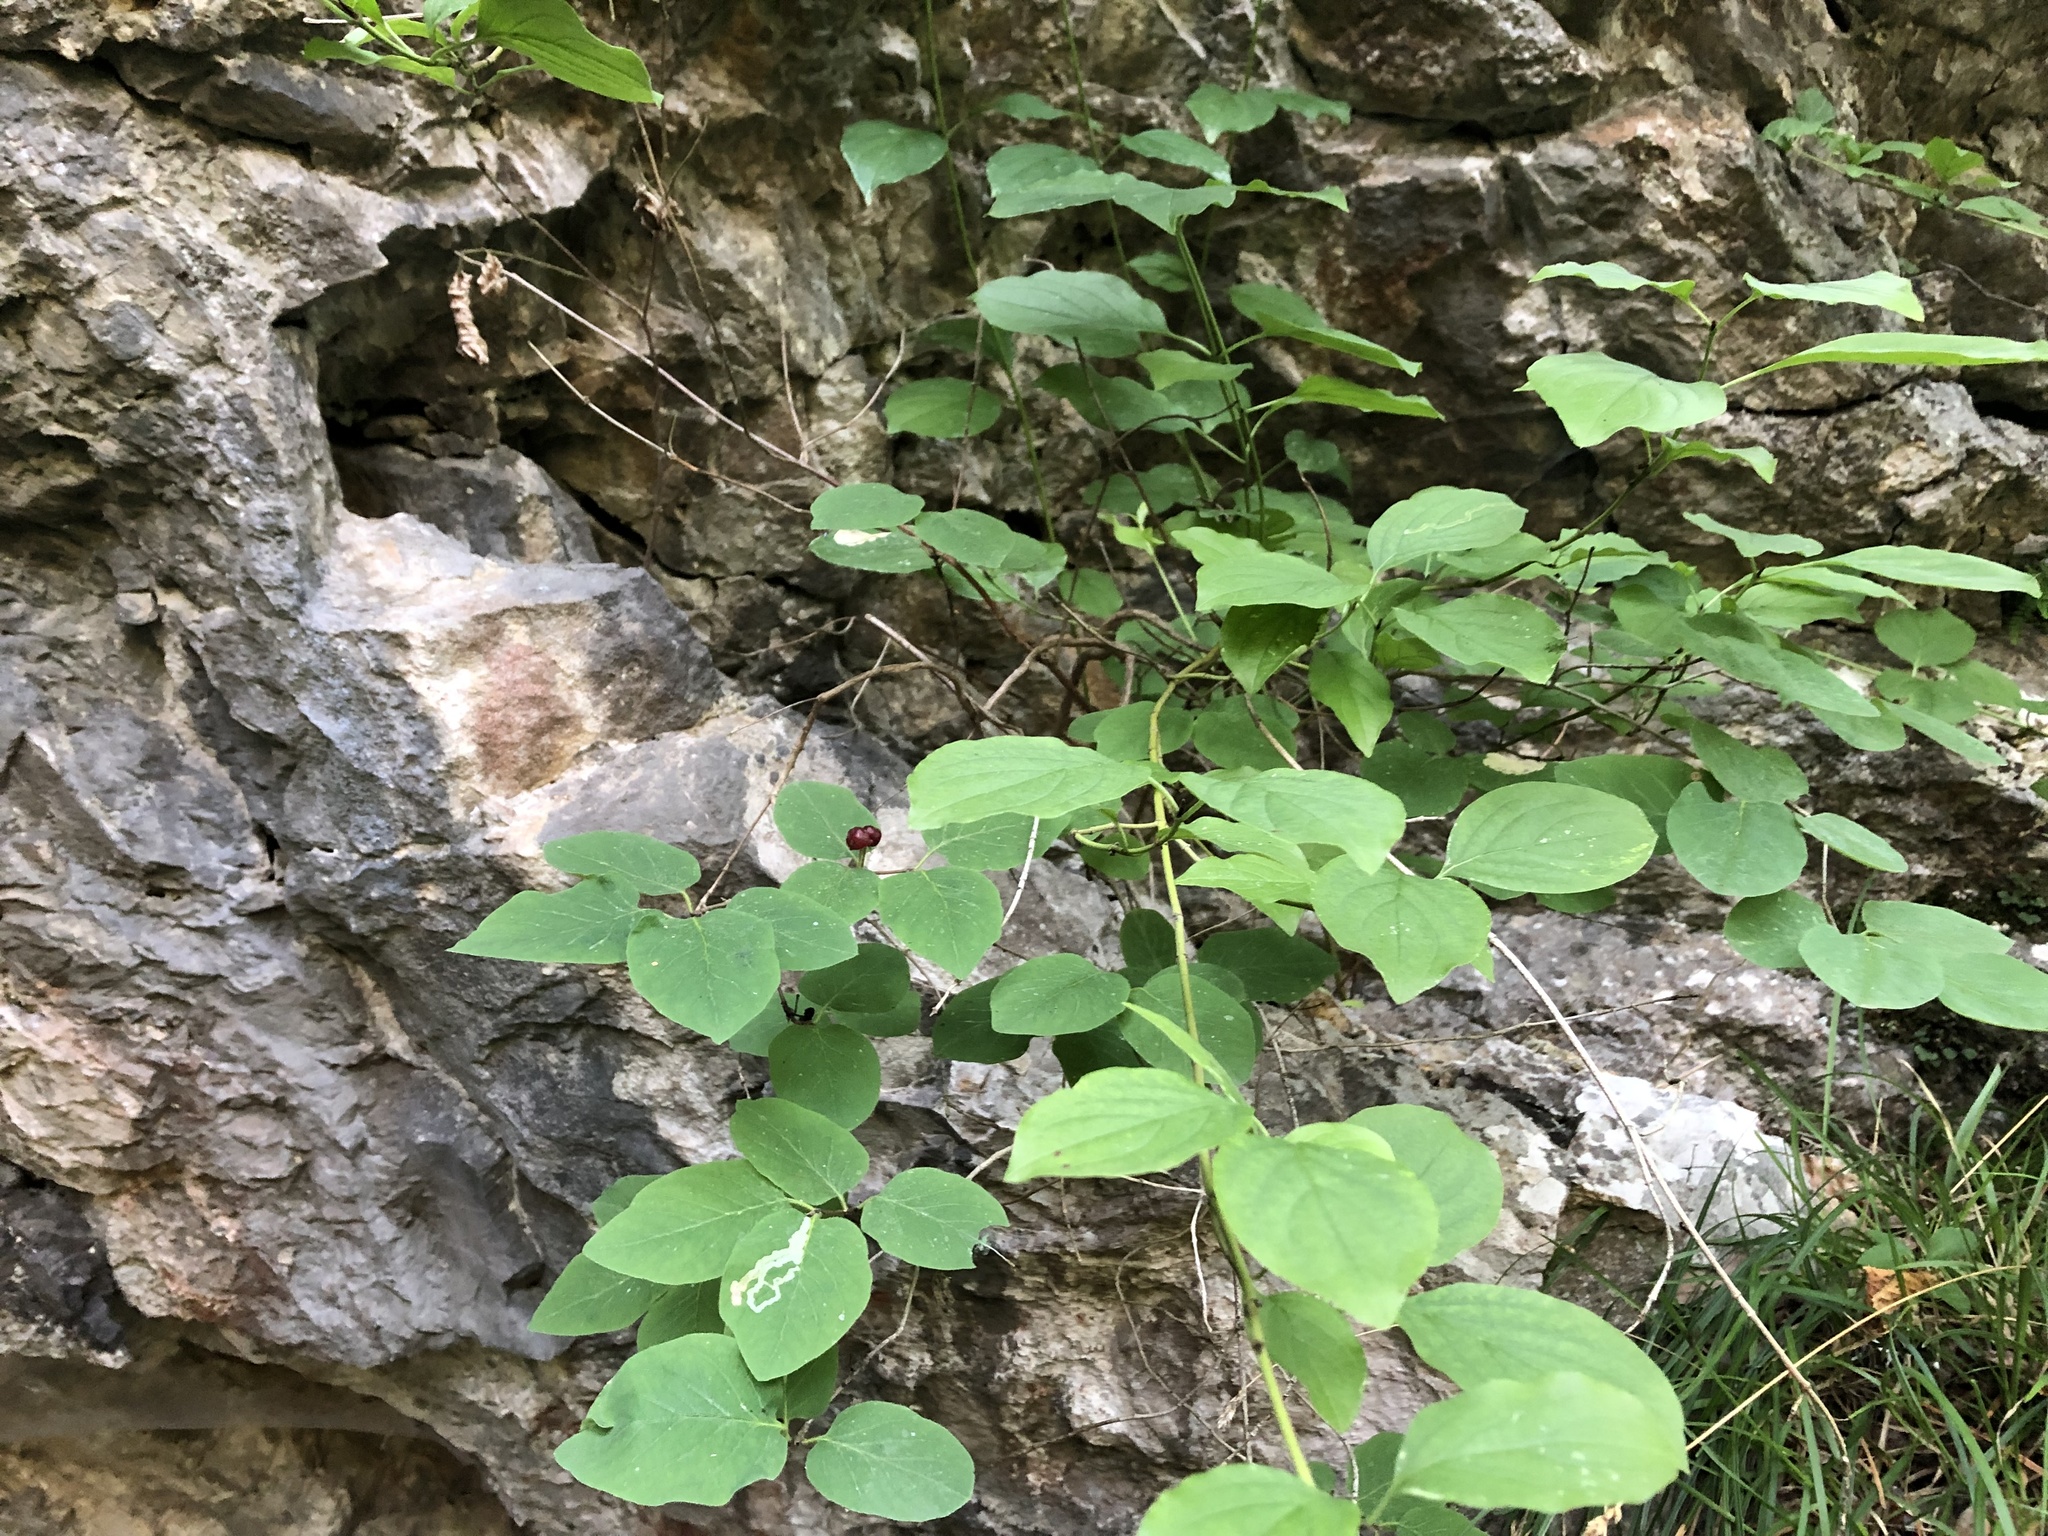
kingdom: Plantae
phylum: Tracheophyta
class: Magnoliopsida
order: Dipsacales
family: Caprifoliaceae
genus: Lonicera
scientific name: Lonicera xylosteum
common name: Fly honeysuckle
